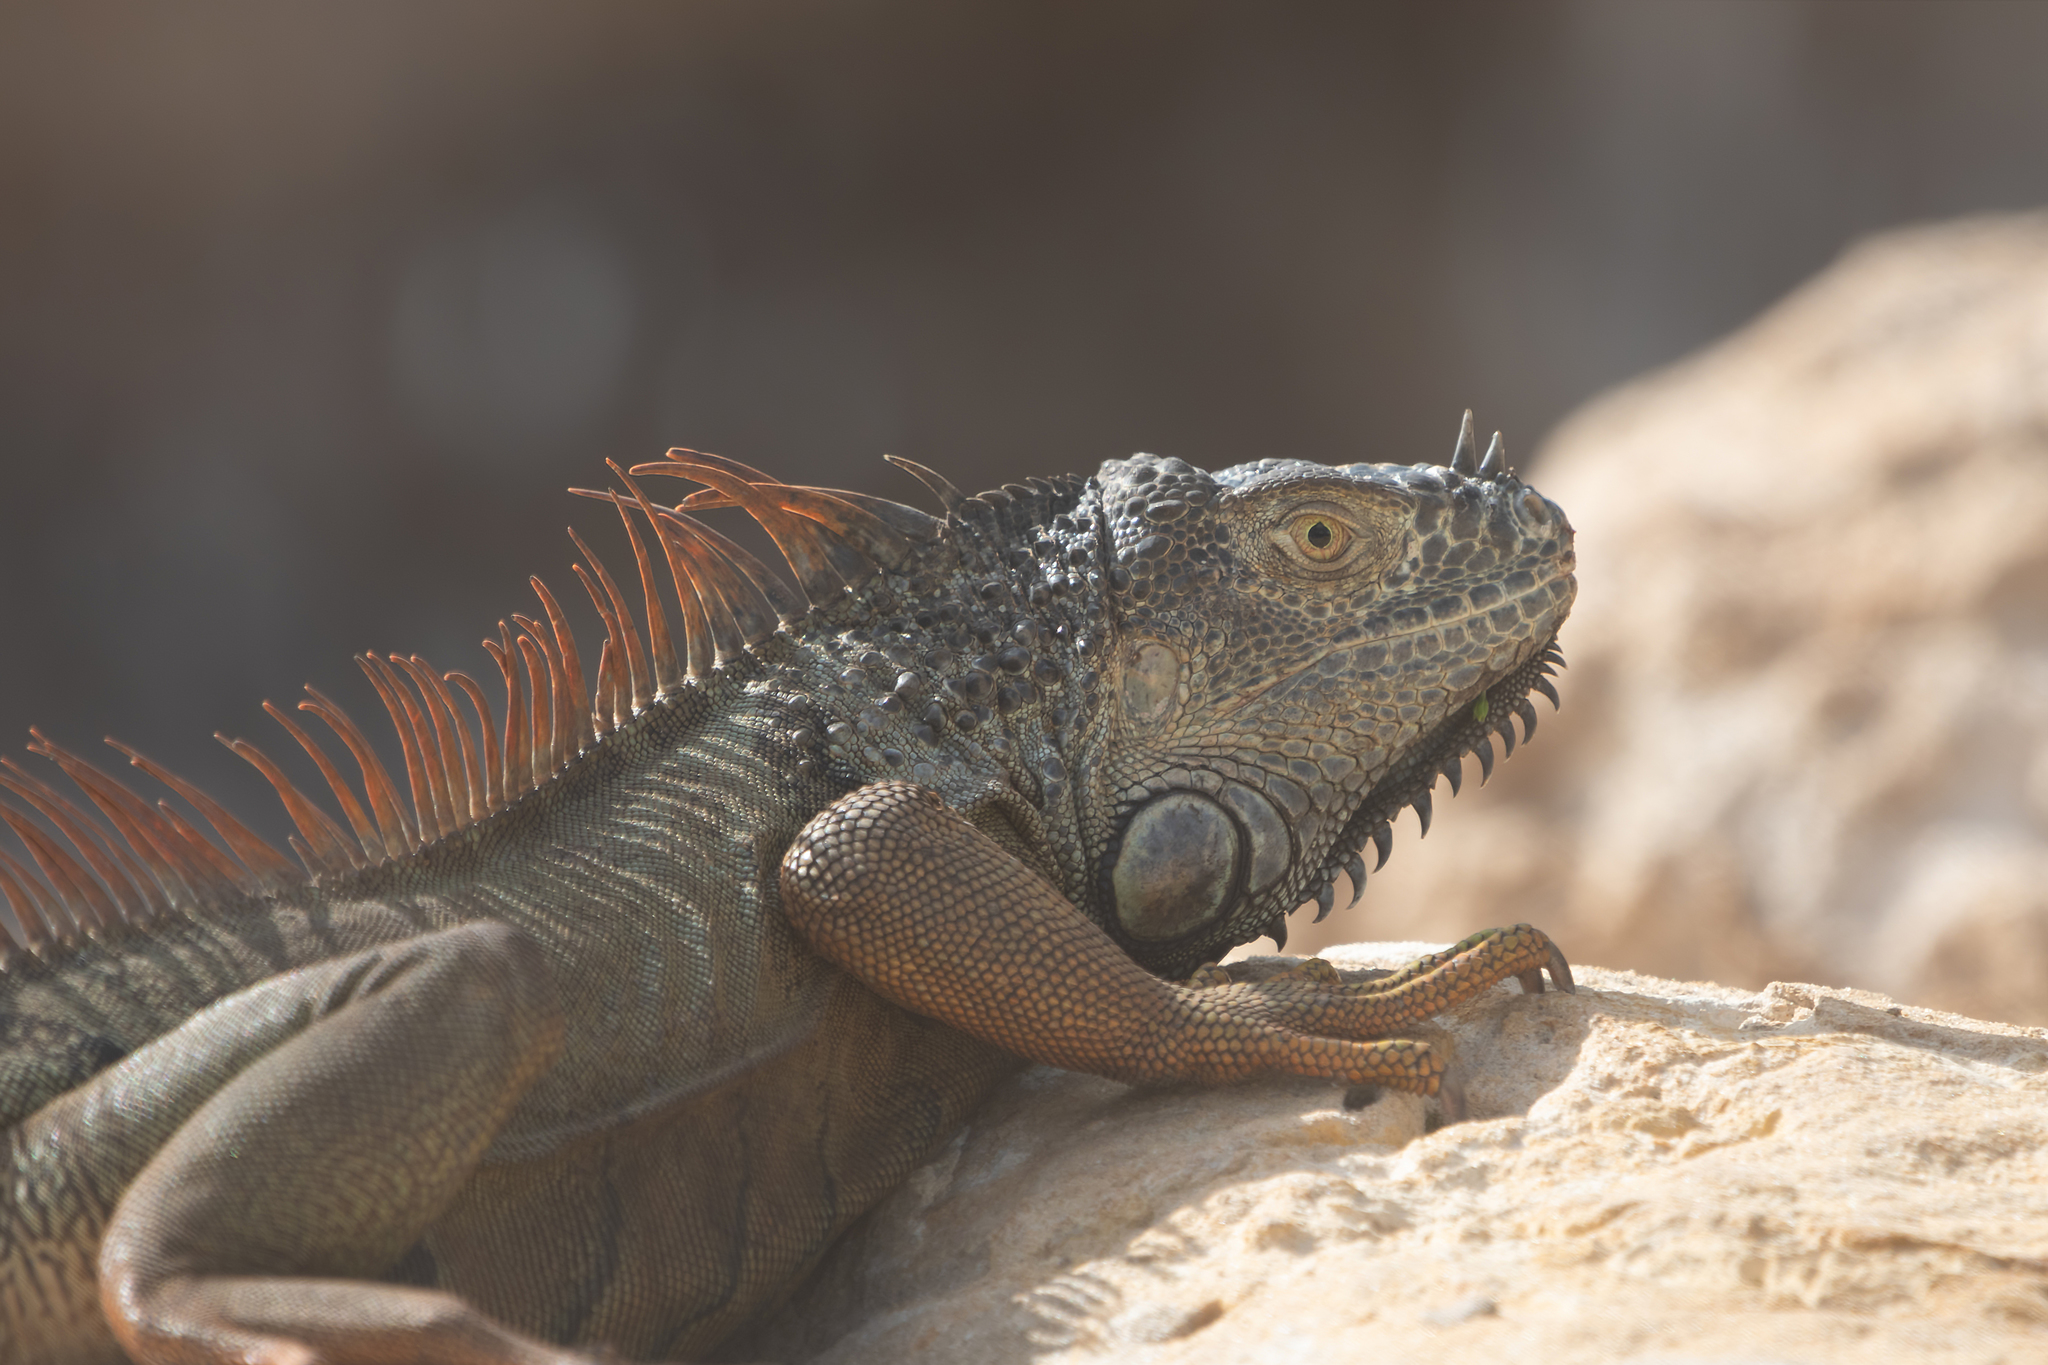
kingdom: Animalia
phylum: Chordata
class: Squamata
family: Iguanidae
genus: Iguana
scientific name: Iguana iguana
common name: Green iguana
